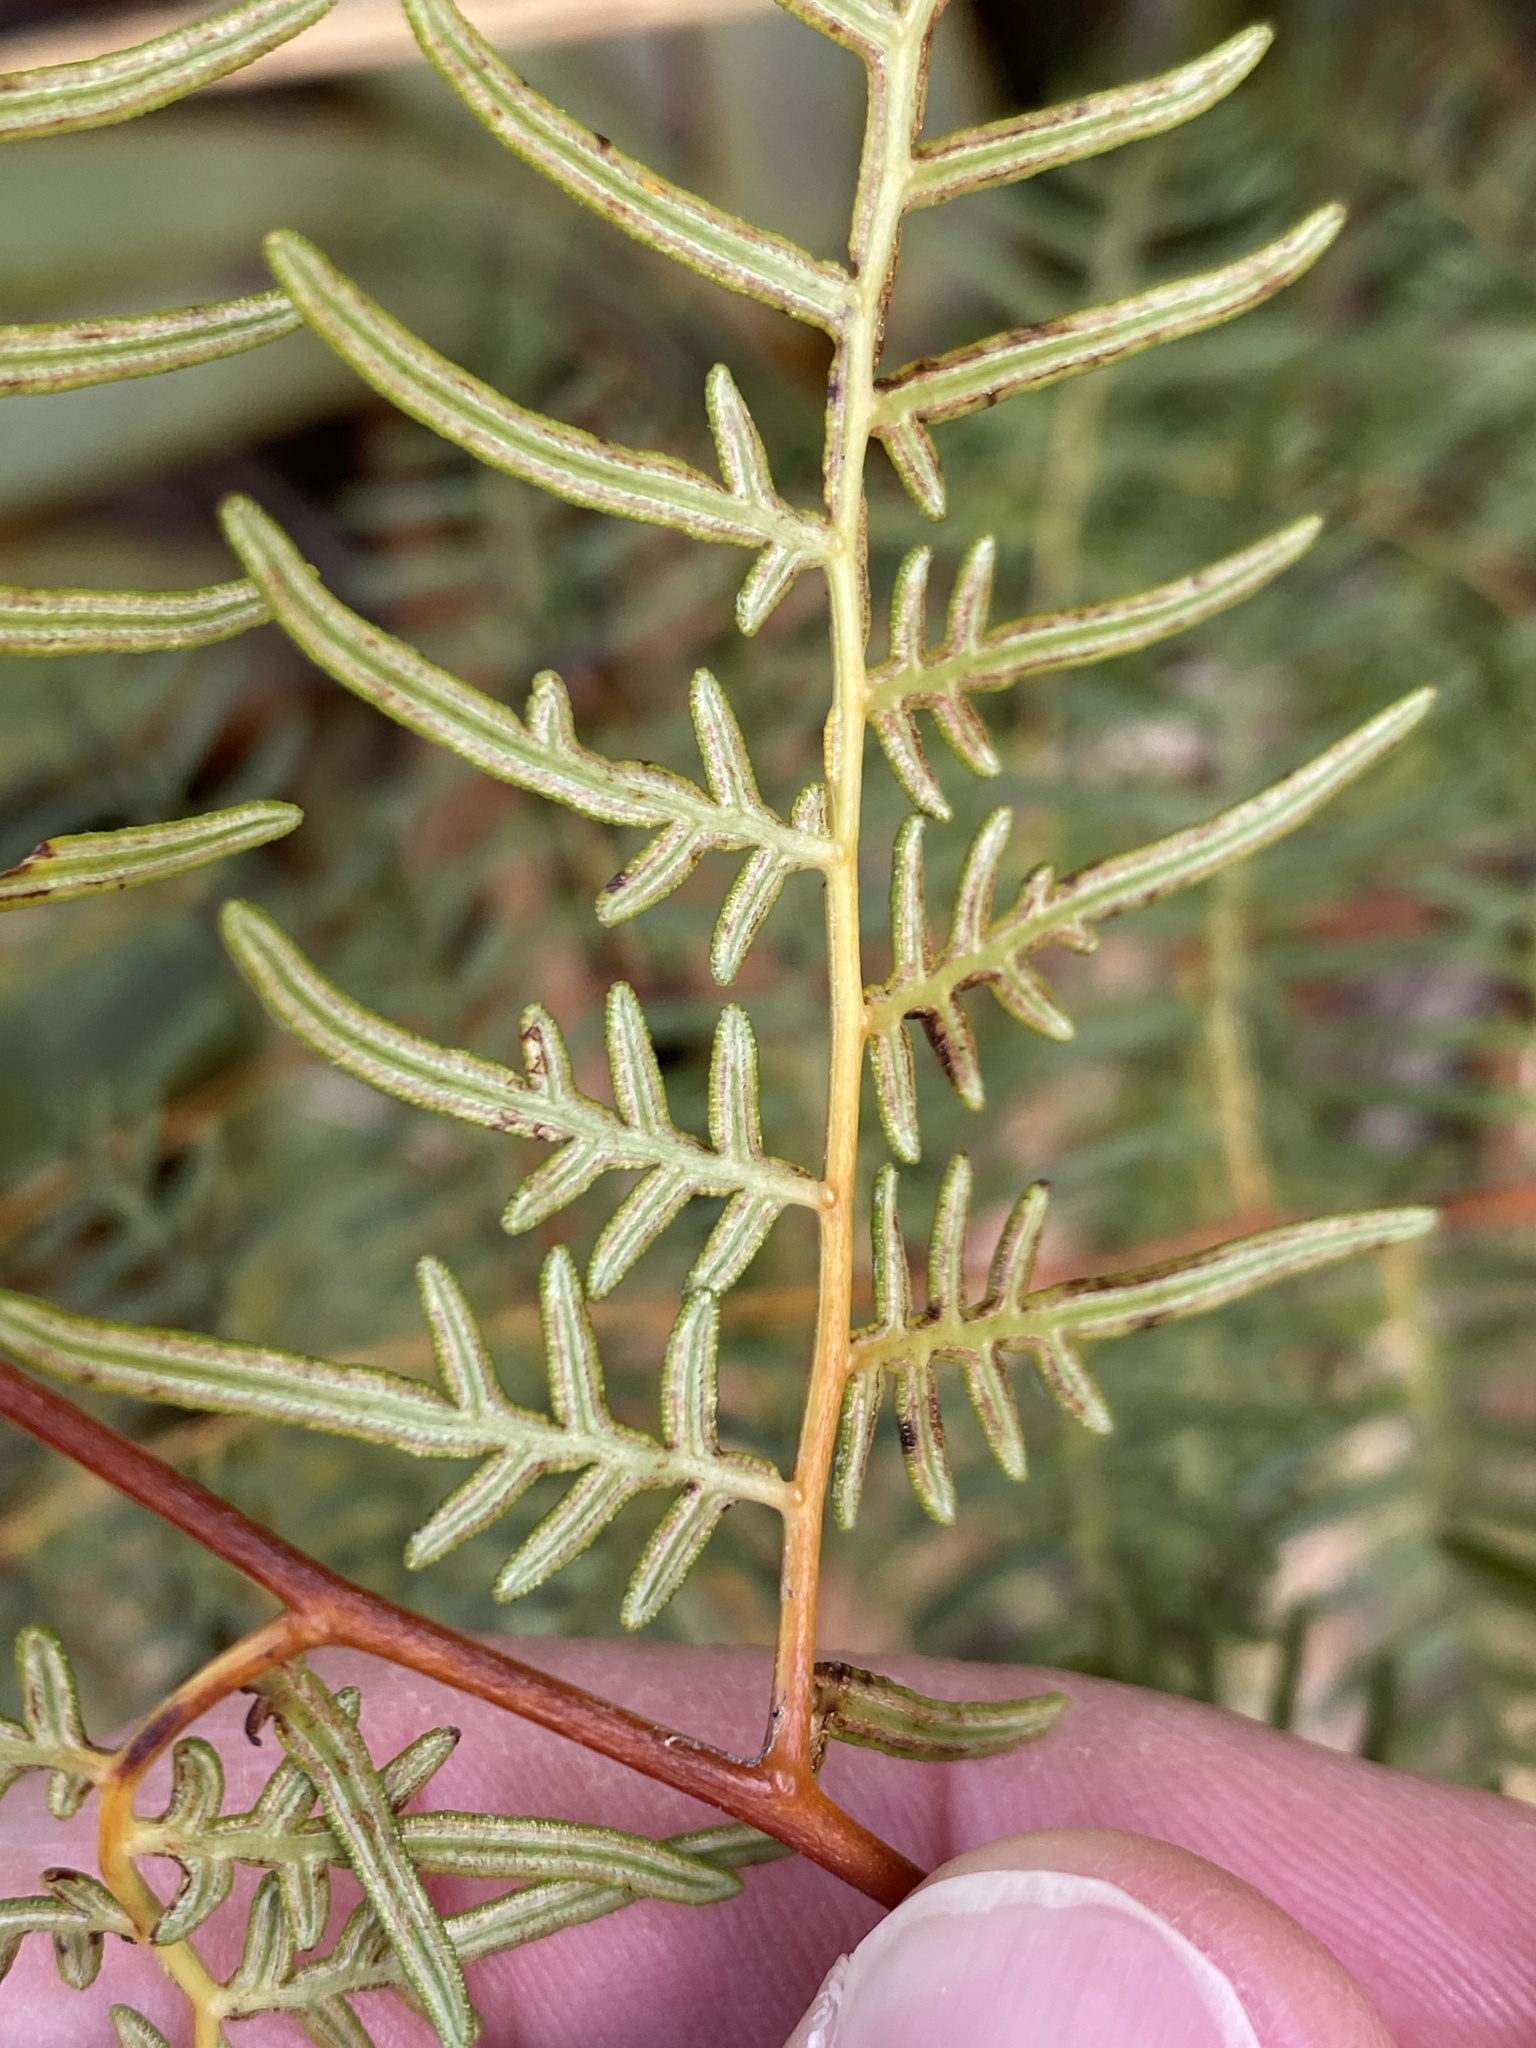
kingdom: Plantae
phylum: Tracheophyta
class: Polypodiopsida
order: Polypodiales
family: Dennstaedtiaceae
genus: Pteridium
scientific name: Pteridium esculentum
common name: Bracken fern
